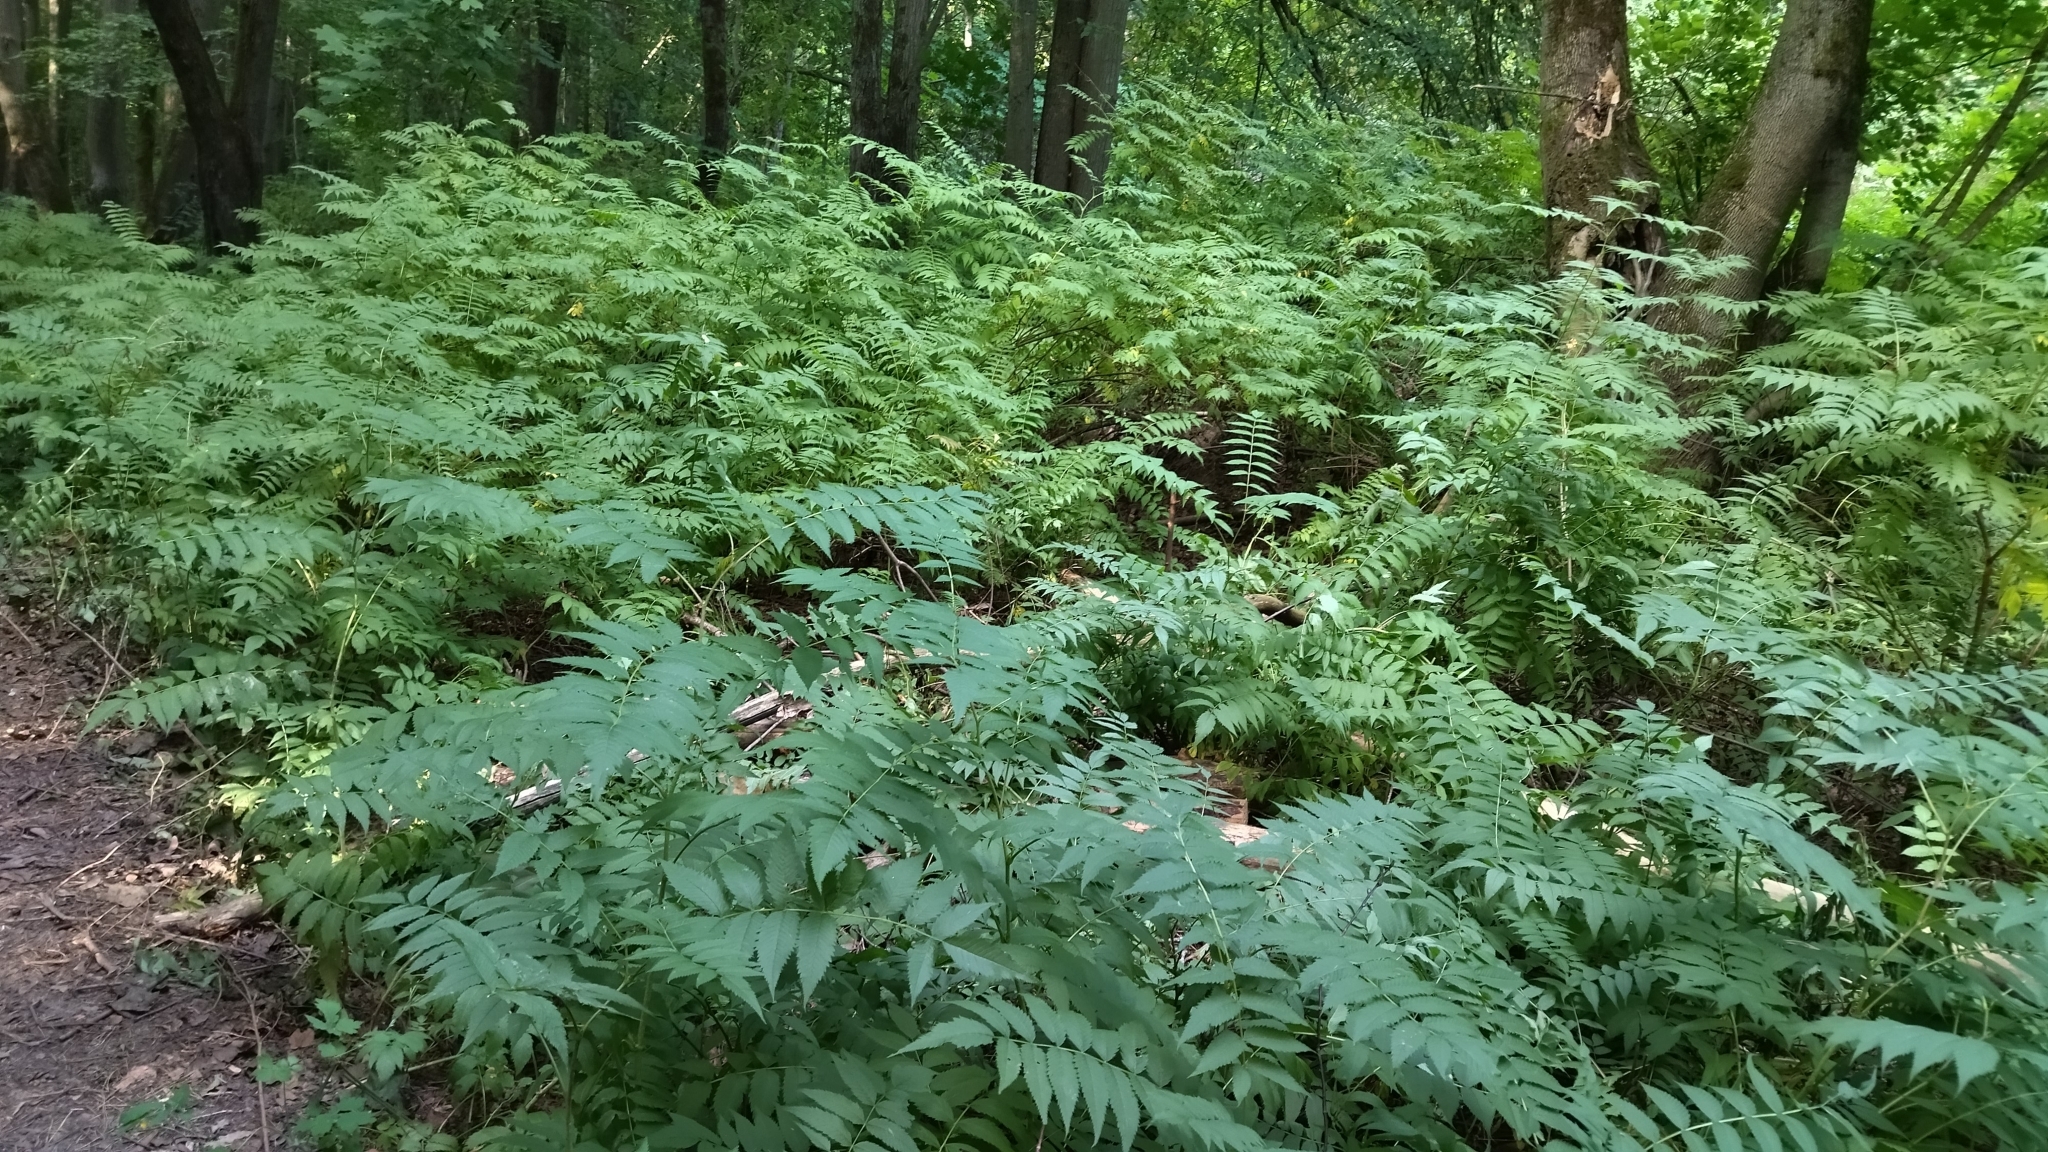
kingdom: Plantae
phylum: Tracheophyta
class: Magnoliopsida
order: Rosales
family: Rosaceae
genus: Sorbaria
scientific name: Sorbaria sorbifolia
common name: False spiraea
